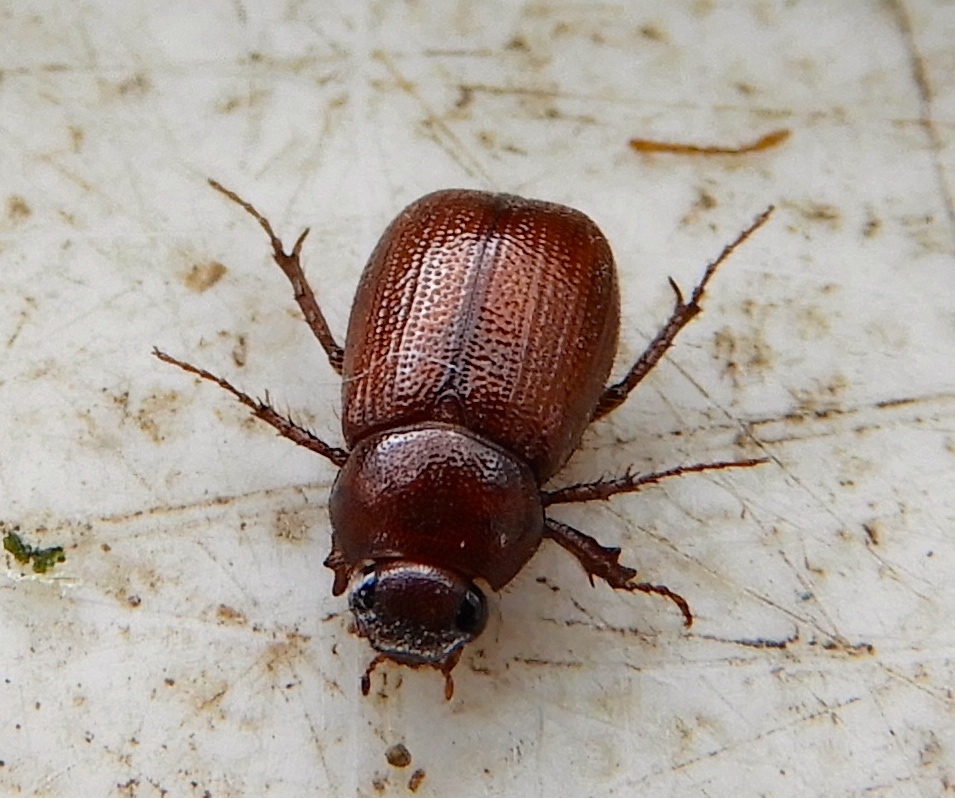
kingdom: Animalia
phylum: Arthropoda
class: Insecta
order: Coleoptera
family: Scarabaeidae
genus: Diplotaxis
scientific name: Diplotaxis
